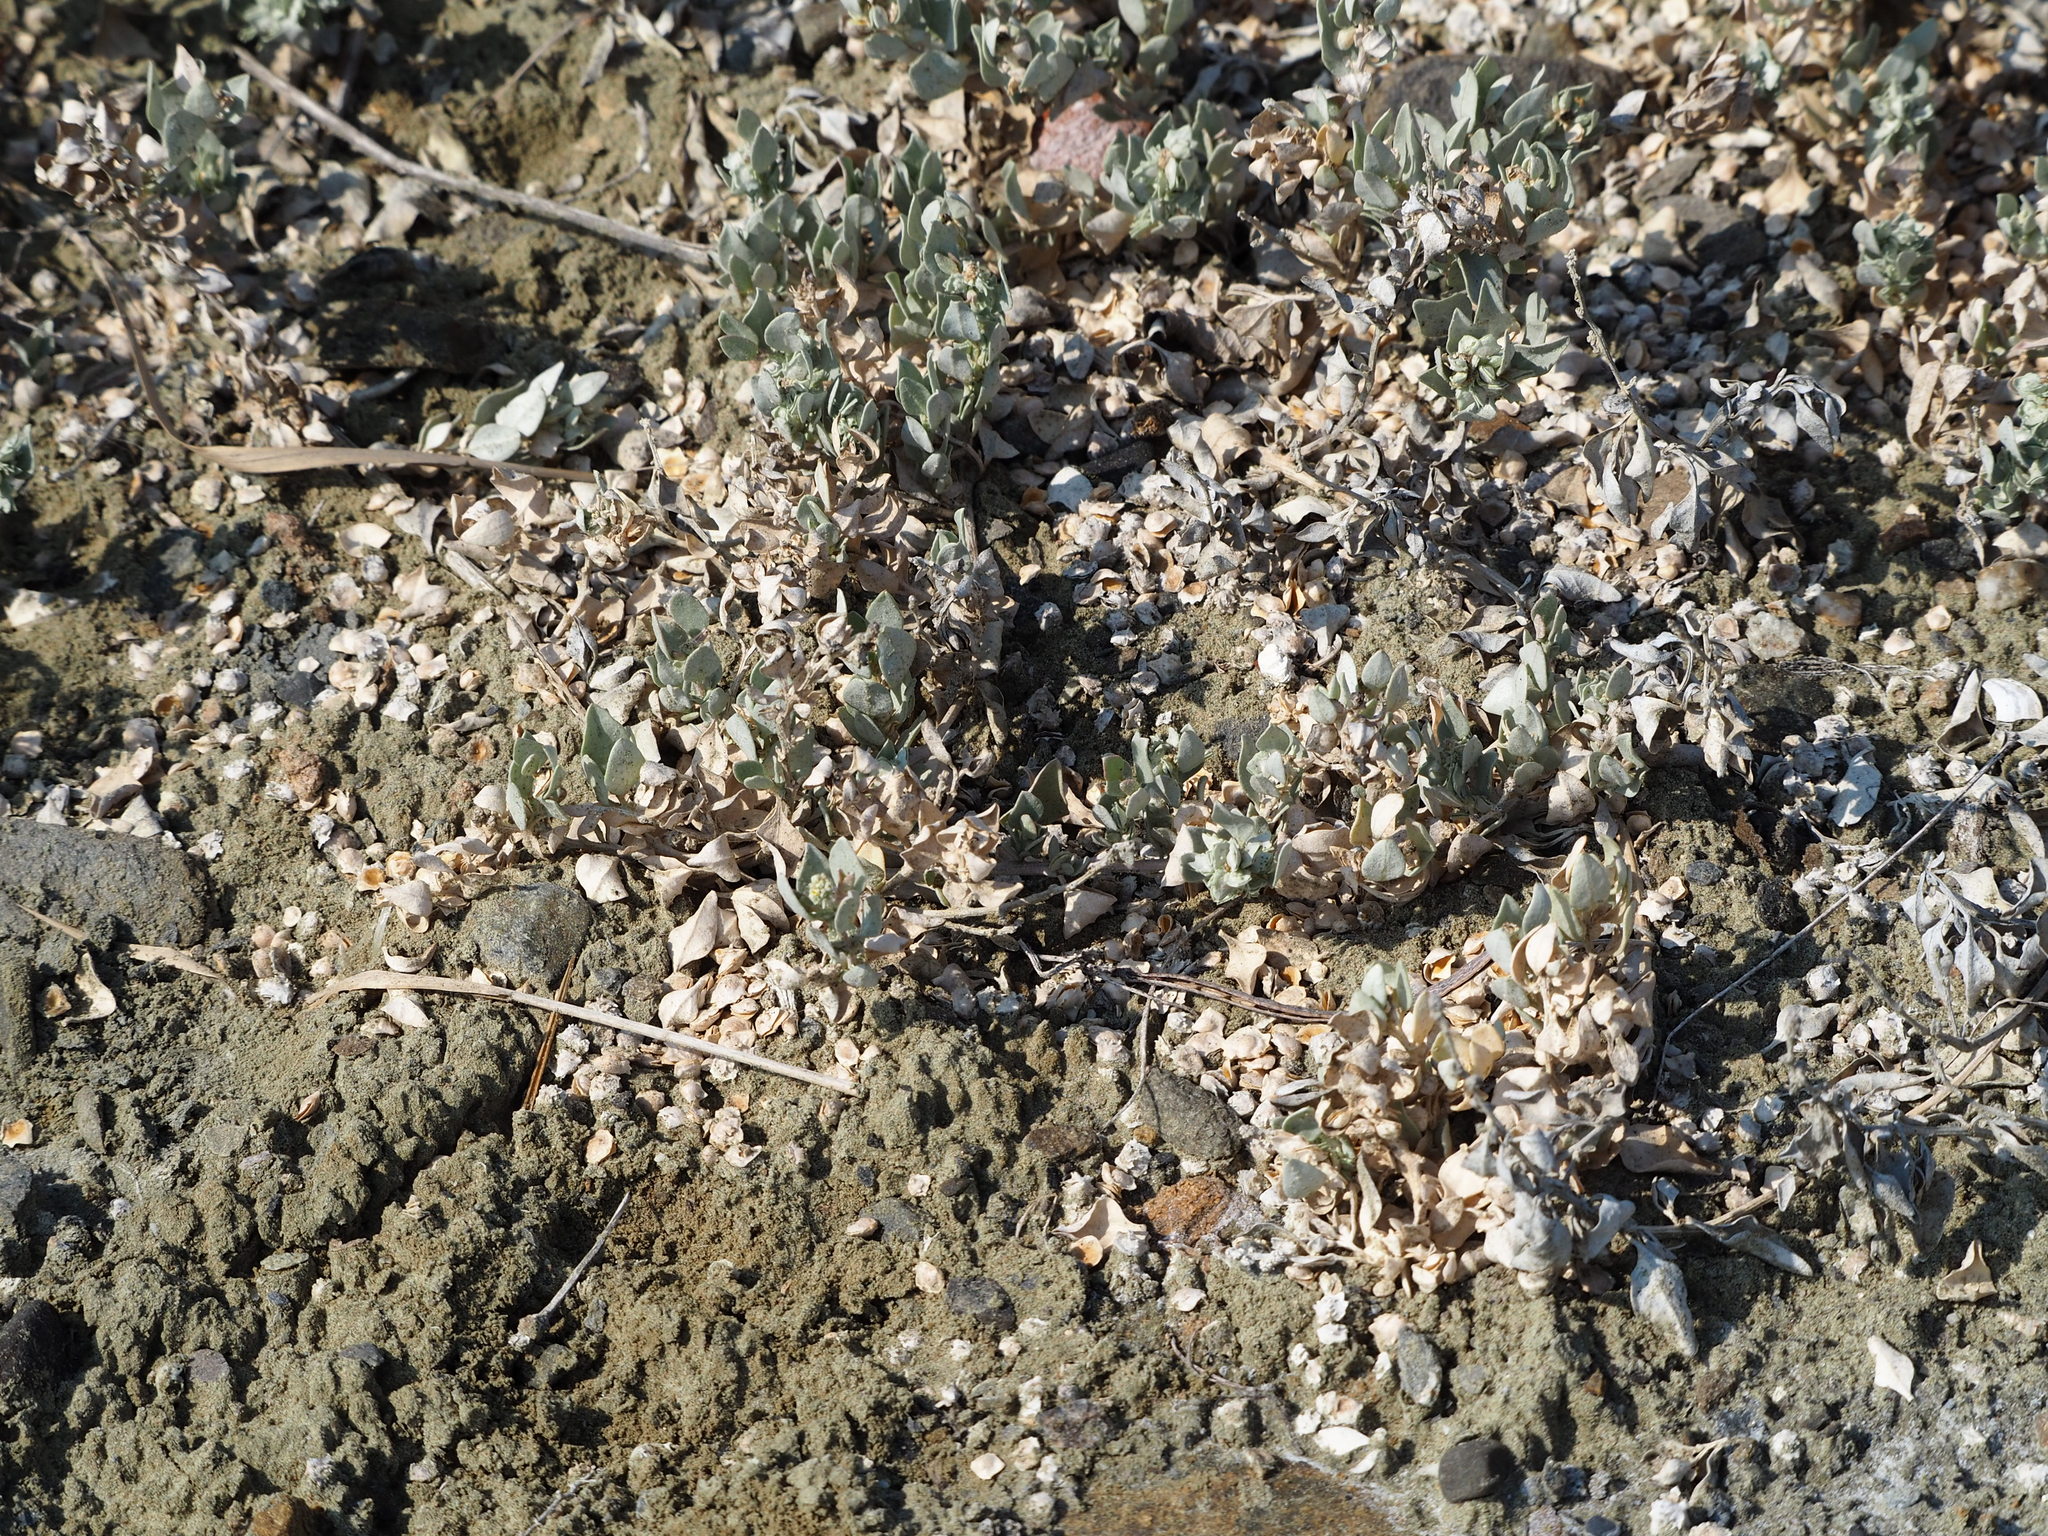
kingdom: Plantae
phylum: Tracheophyta
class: Magnoliopsida
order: Caryophyllales
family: Amaranthaceae
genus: Atriplex
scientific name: Atriplex maximowicziana
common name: Maximowicz's saltbush
